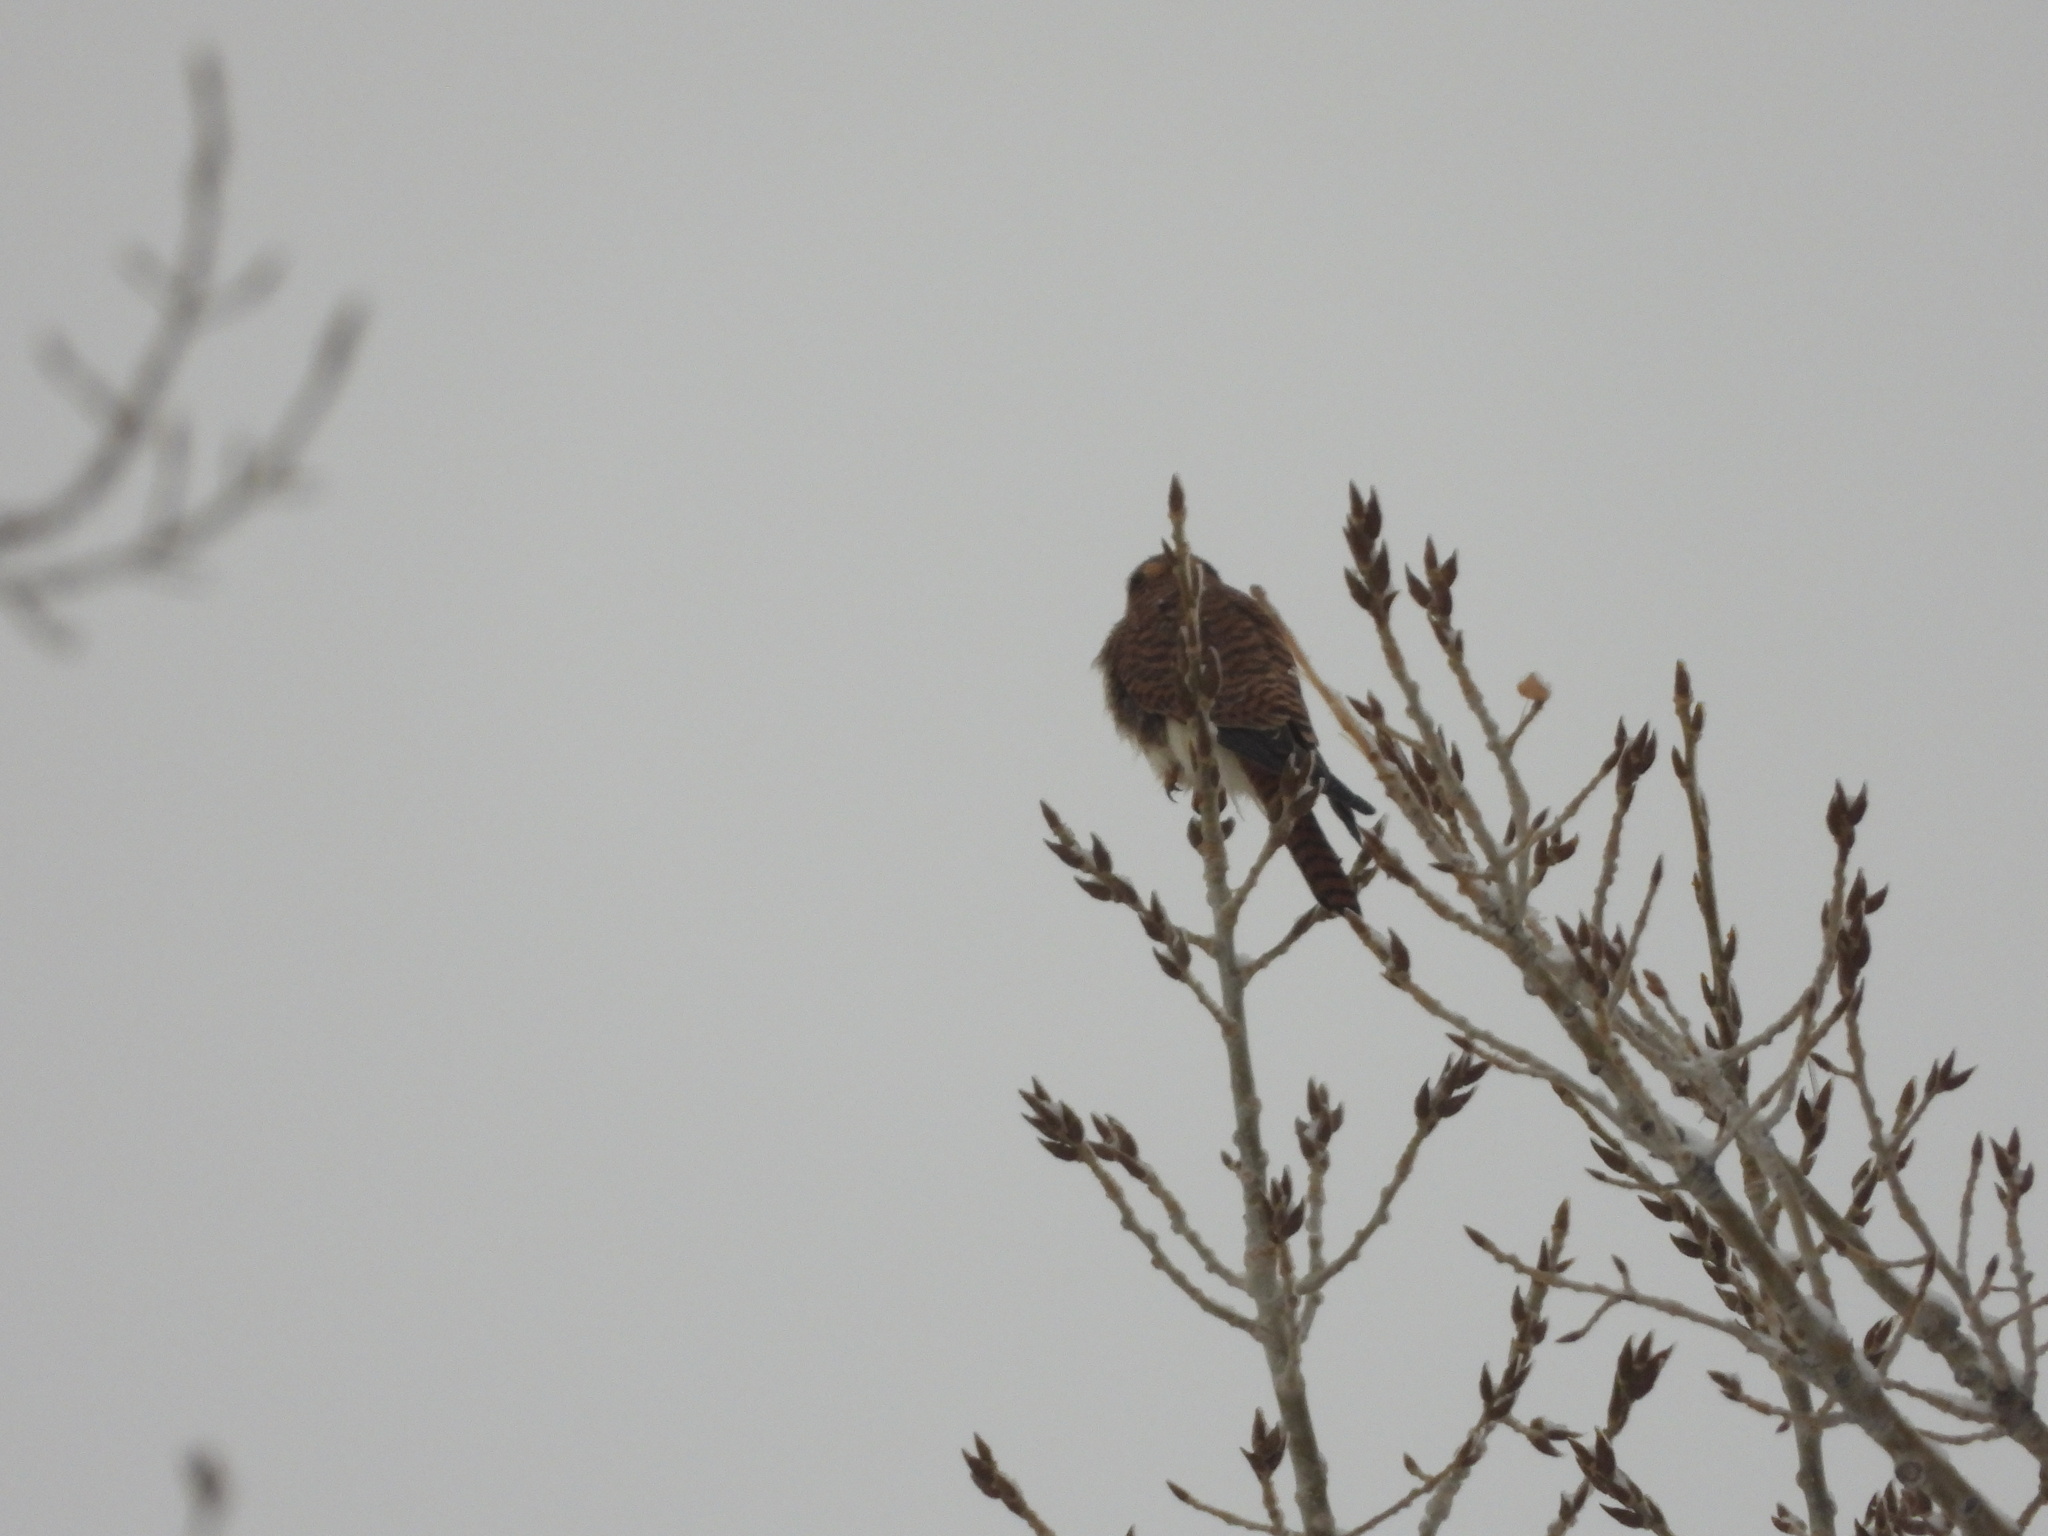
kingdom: Animalia
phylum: Chordata
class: Aves
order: Falconiformes
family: Falconidae
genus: Falco
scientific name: Falco sparverius
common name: American kestrel
